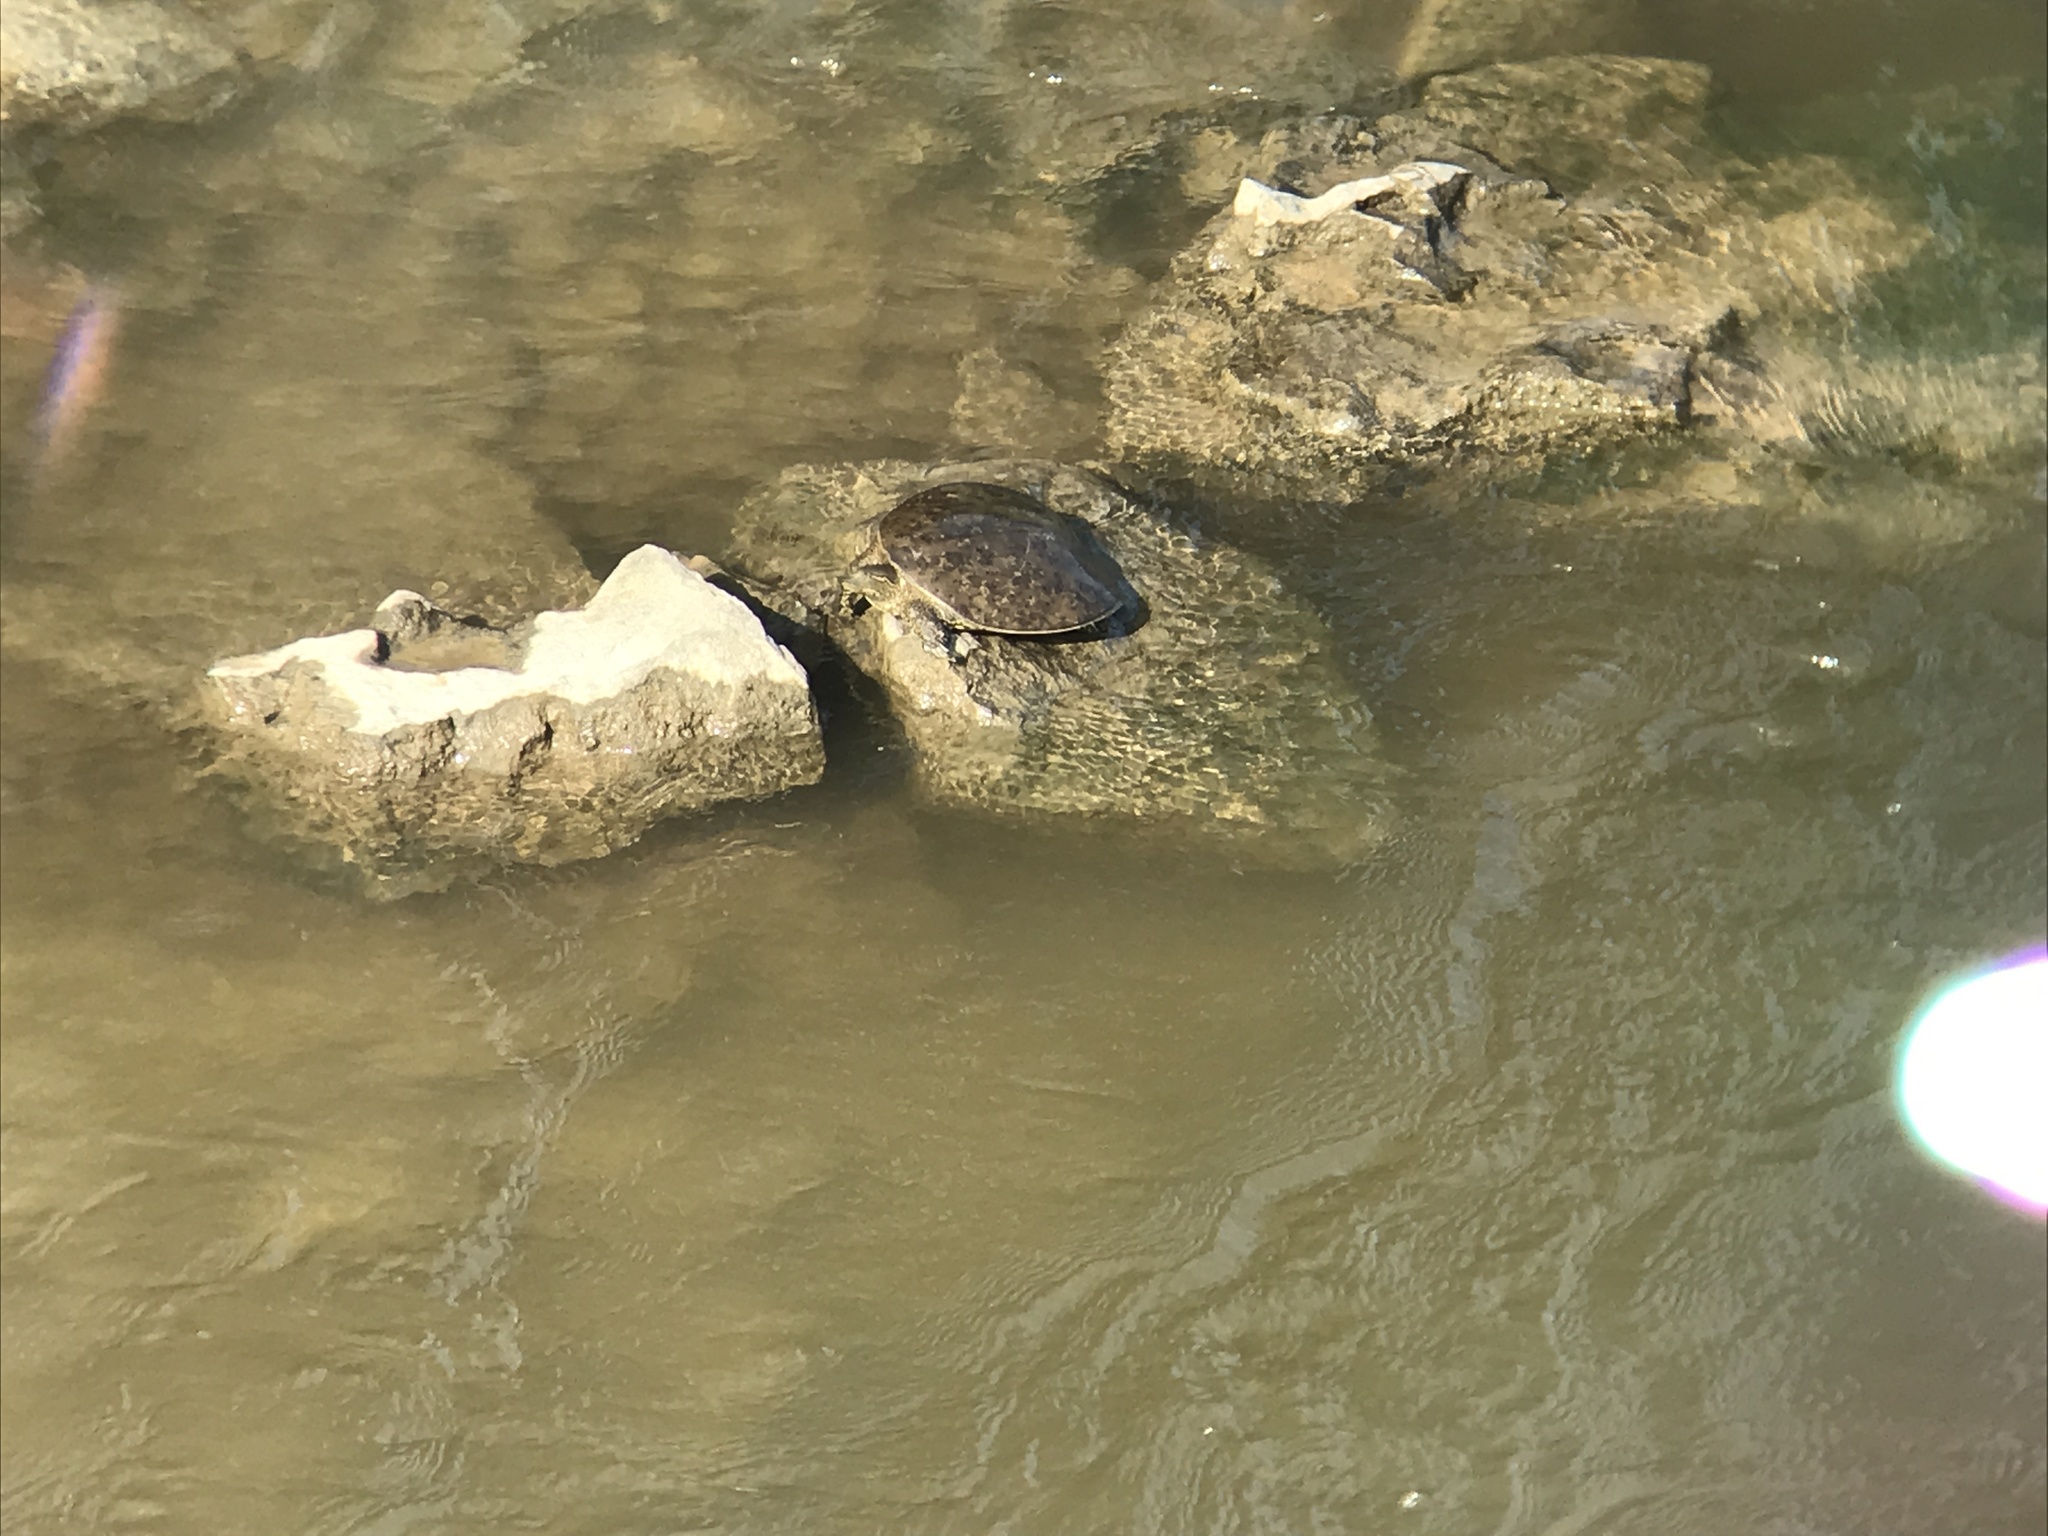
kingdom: Animalia
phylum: Chordata
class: Testudines
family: Trionychidae
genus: Apalone
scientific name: Apalone spinifera
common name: Spiny softshell turtle
